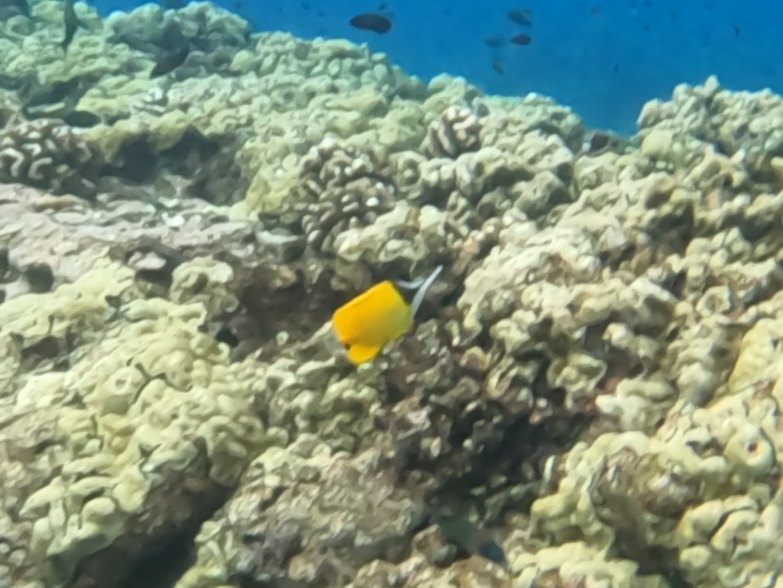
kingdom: Animalia
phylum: Chordata
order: Perciformes
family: Chaetodontidae
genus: Forcipiger
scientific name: Forcipiger flavissimus
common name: Forcepsfish
